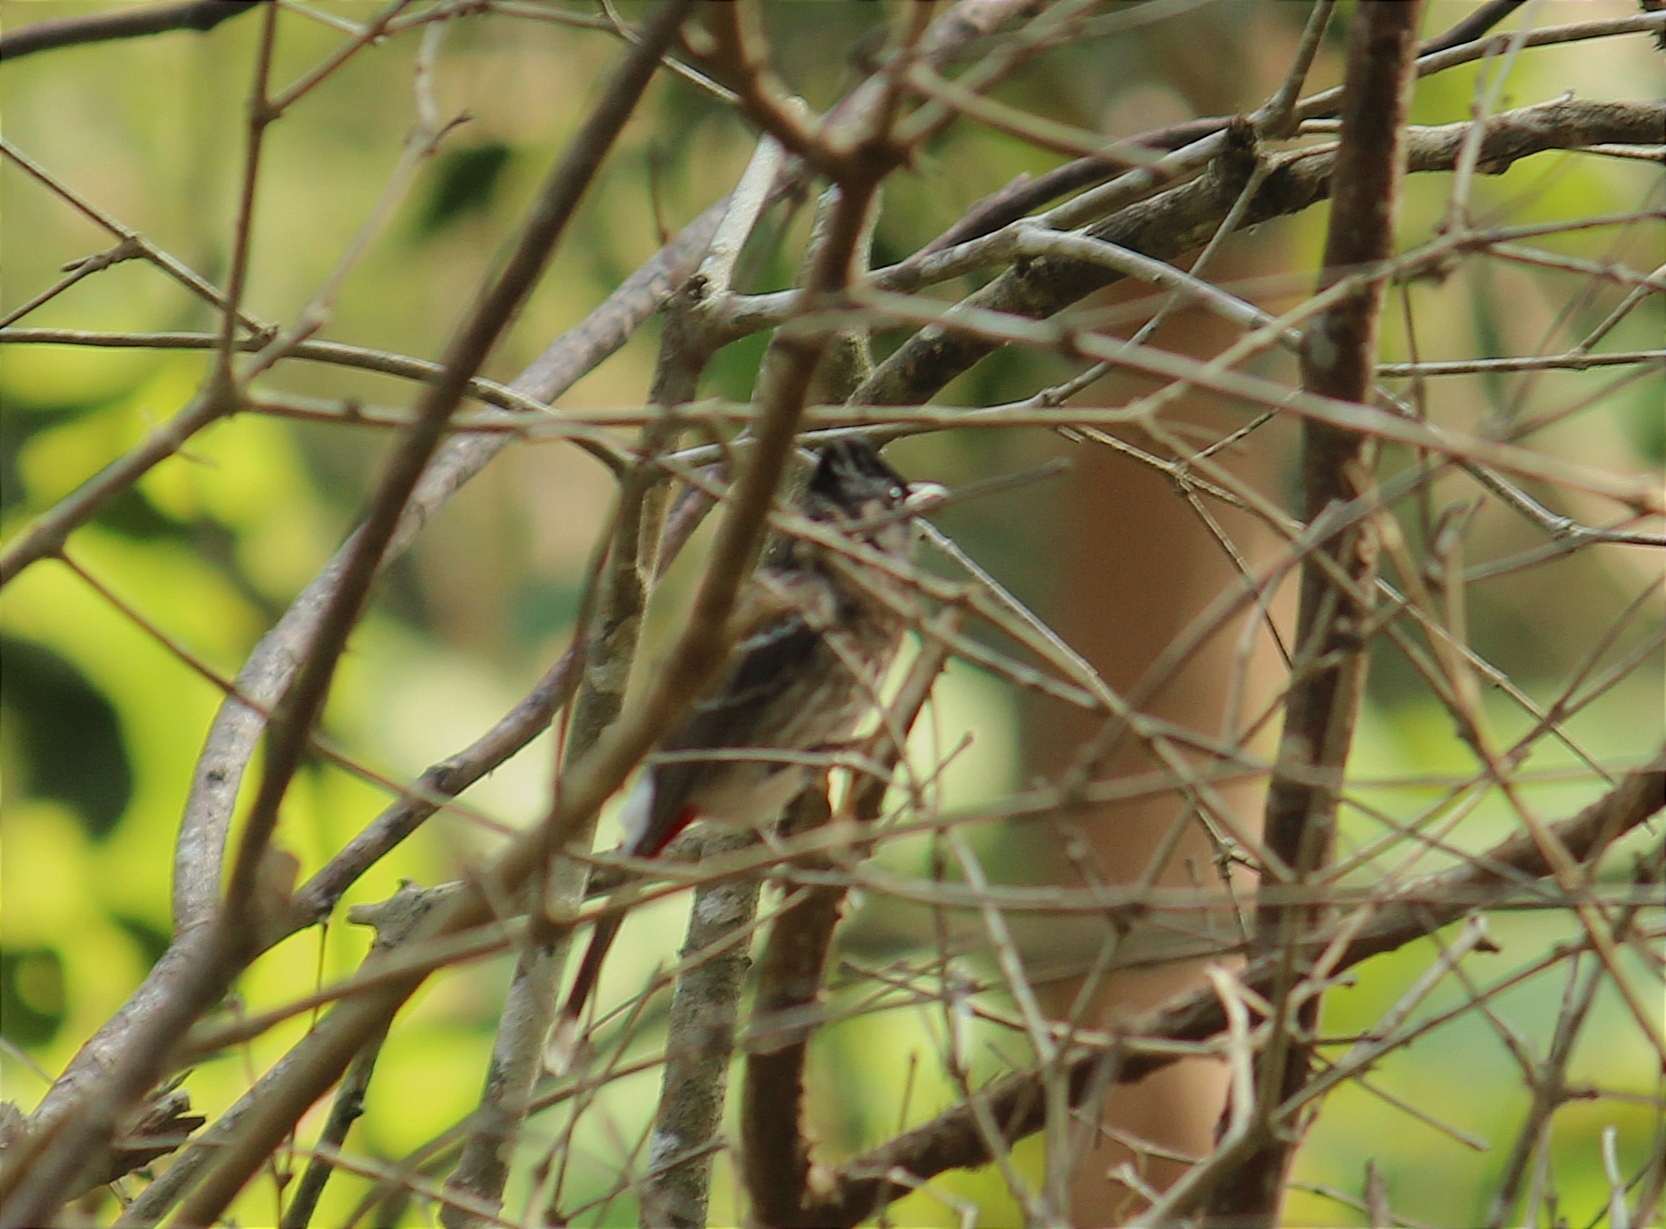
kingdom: Animalia
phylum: Chordata
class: Aves
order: Passeriformes
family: Pycnonotidae
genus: Pycnonotus
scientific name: Pycnonotus cafer
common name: Red-vented bulbul
